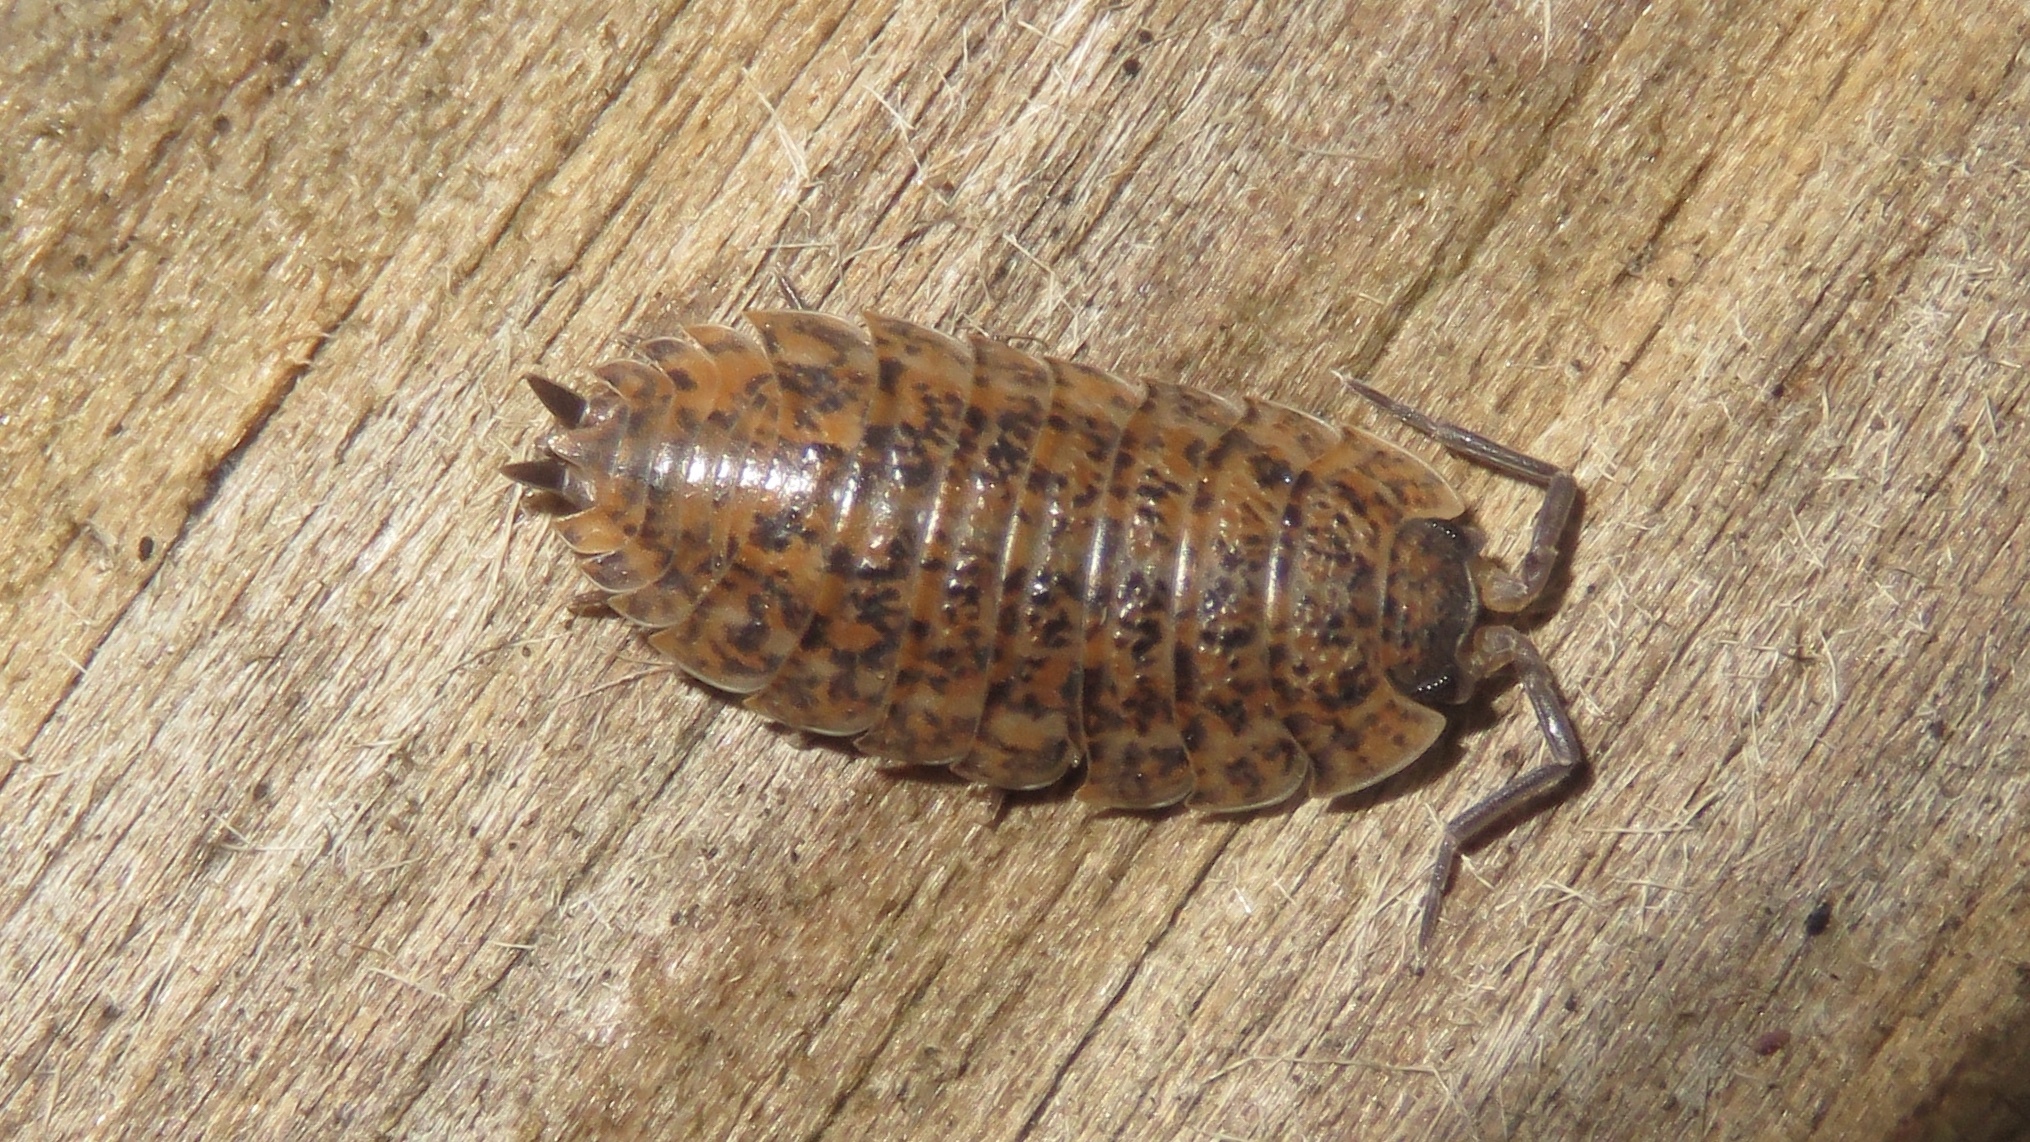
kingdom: Animalia
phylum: Arthropoda
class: Malacostraca
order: Isopoda
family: Trachelipodidae
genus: Trachelipus
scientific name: Trachelipus rathkii
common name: Isopod
